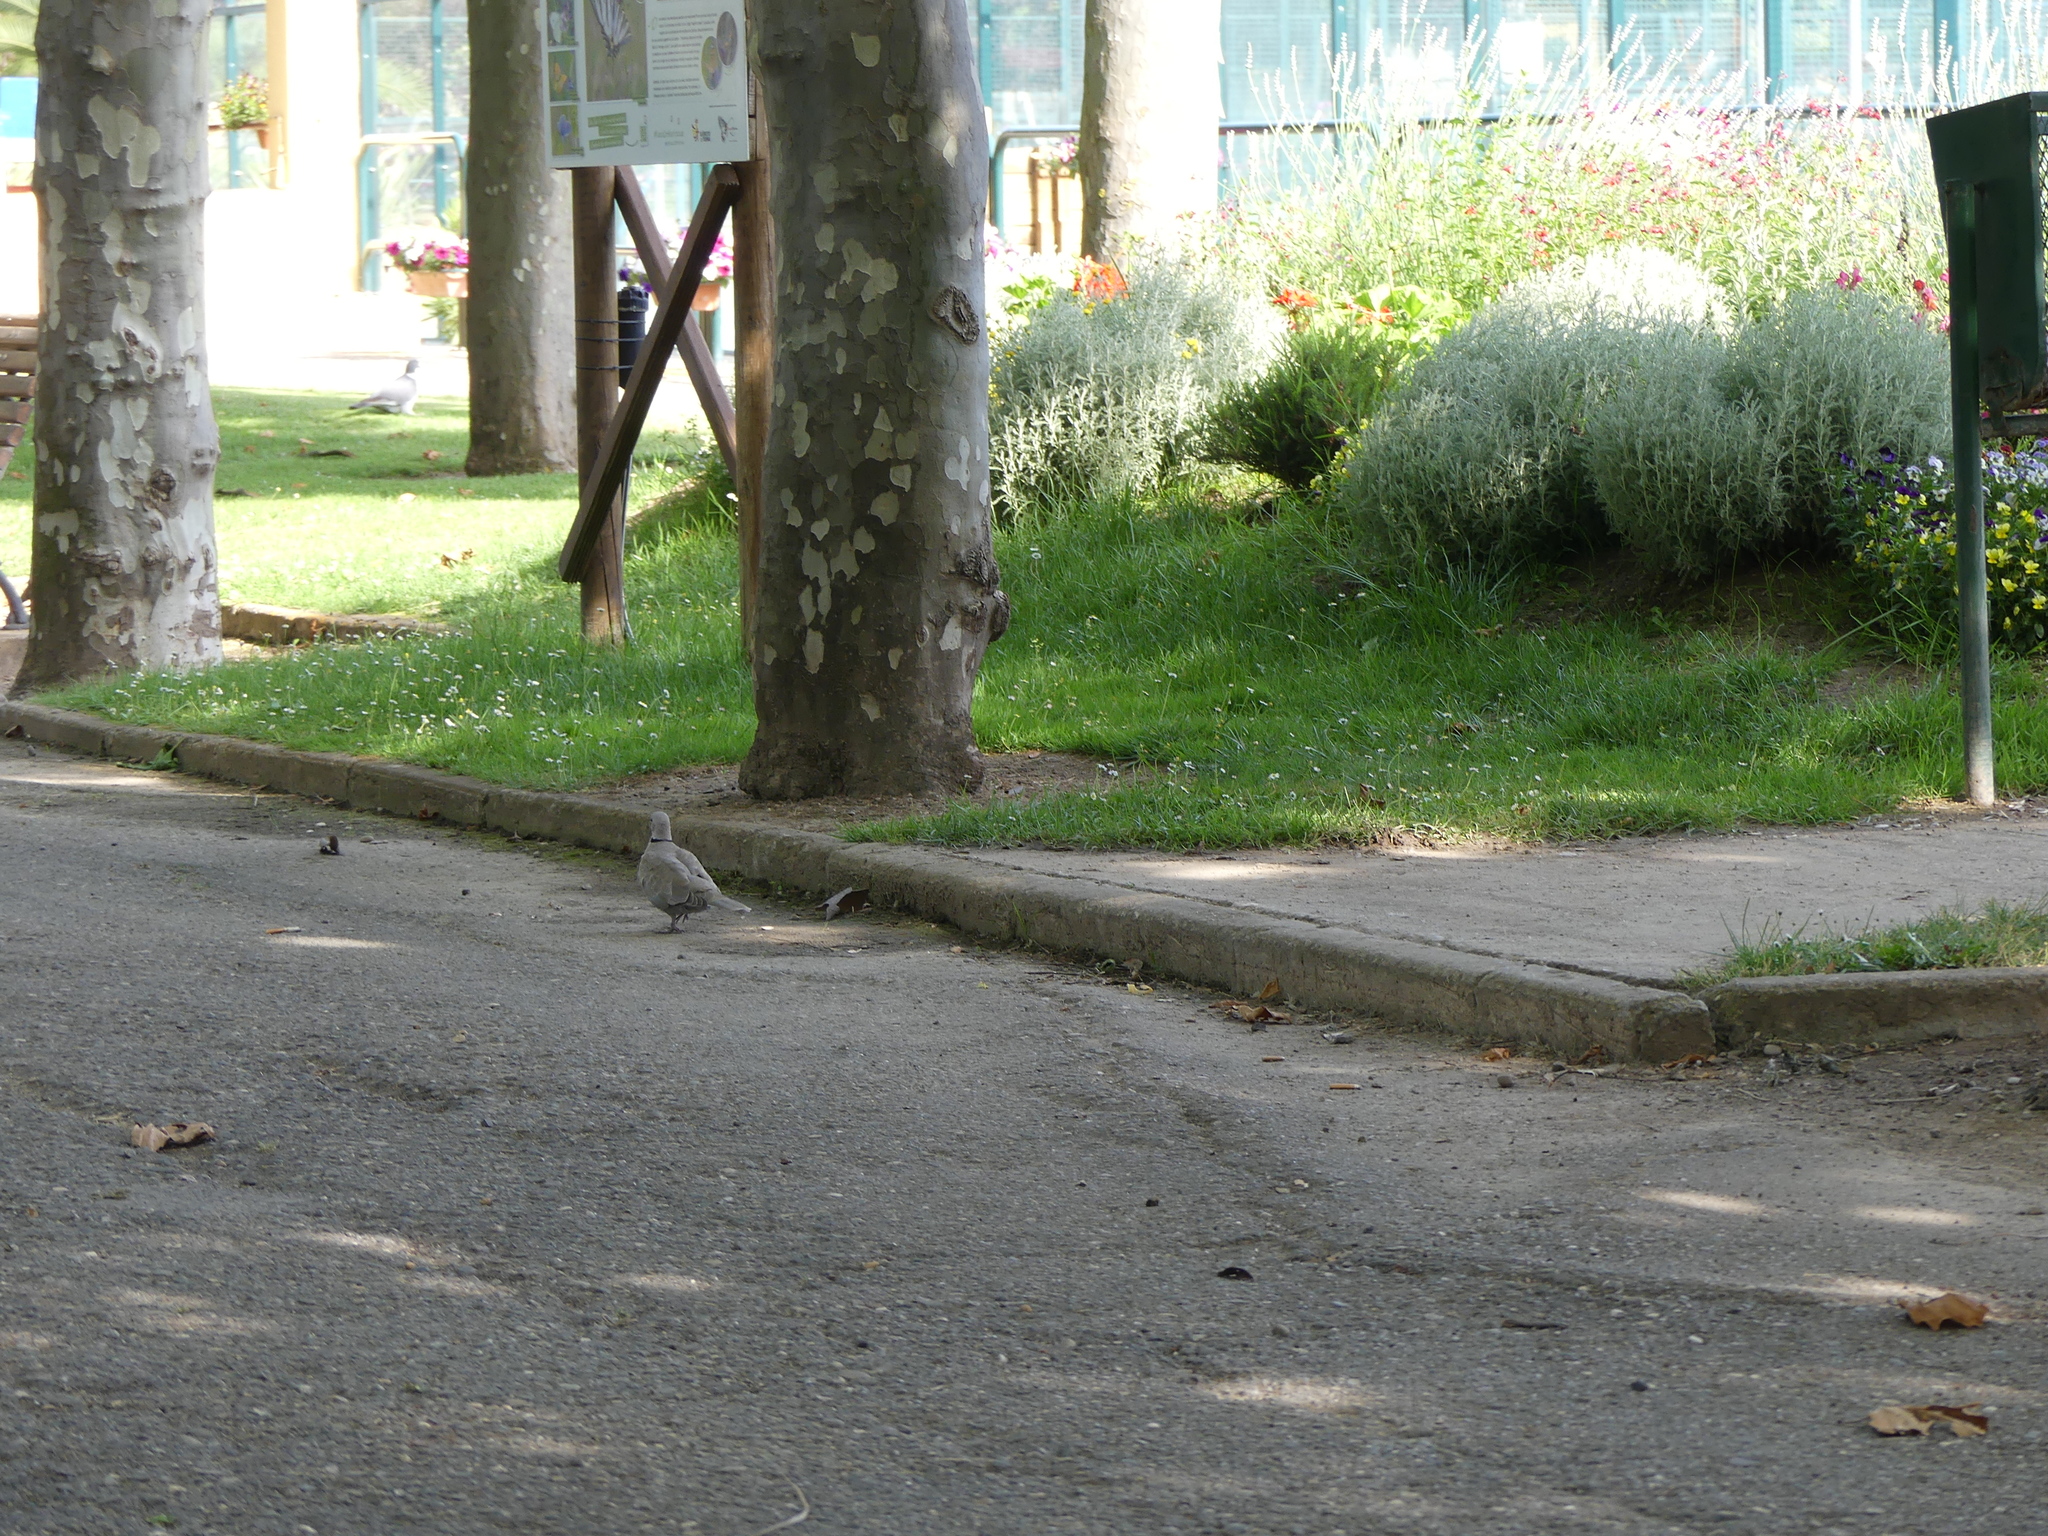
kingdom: Animalia
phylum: Chordata
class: Aves
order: Columbiformes
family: Columbidae
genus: Streptopelia
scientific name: Streptopelia decaocto
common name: Eurasian collared dove
